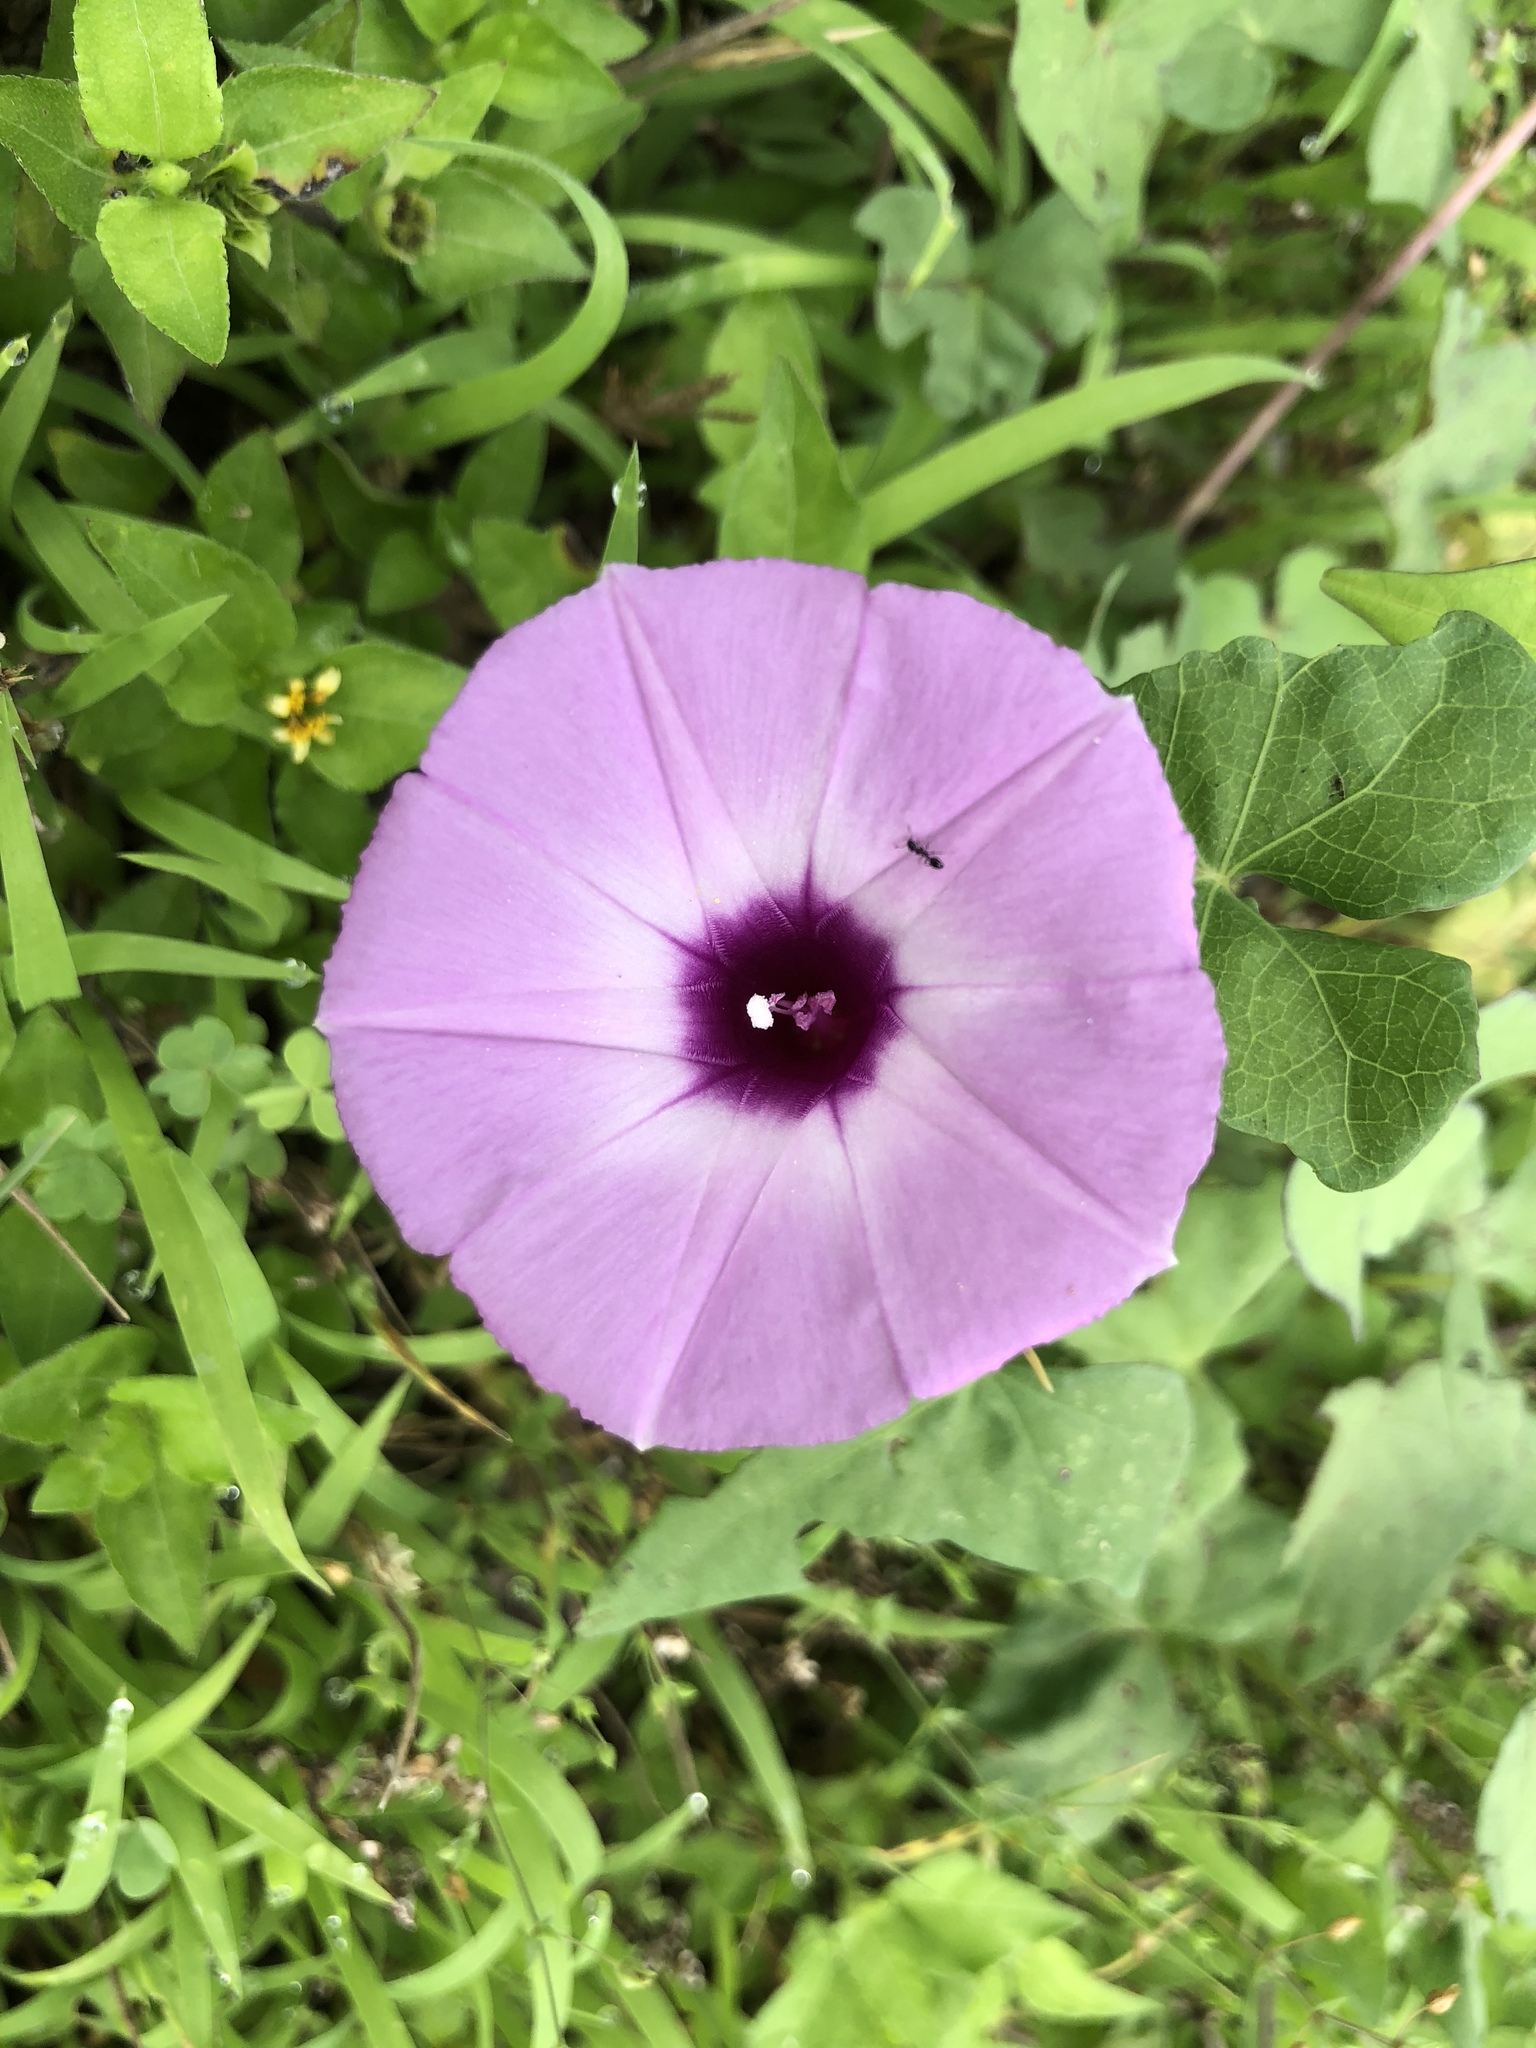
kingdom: Plantae
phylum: Tracheophyta
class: Magnoliopsida
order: Solanales
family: Convolvulaceae
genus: Ipomoea
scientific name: Ipomoea cordatotriloba
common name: Cotton morning glory
